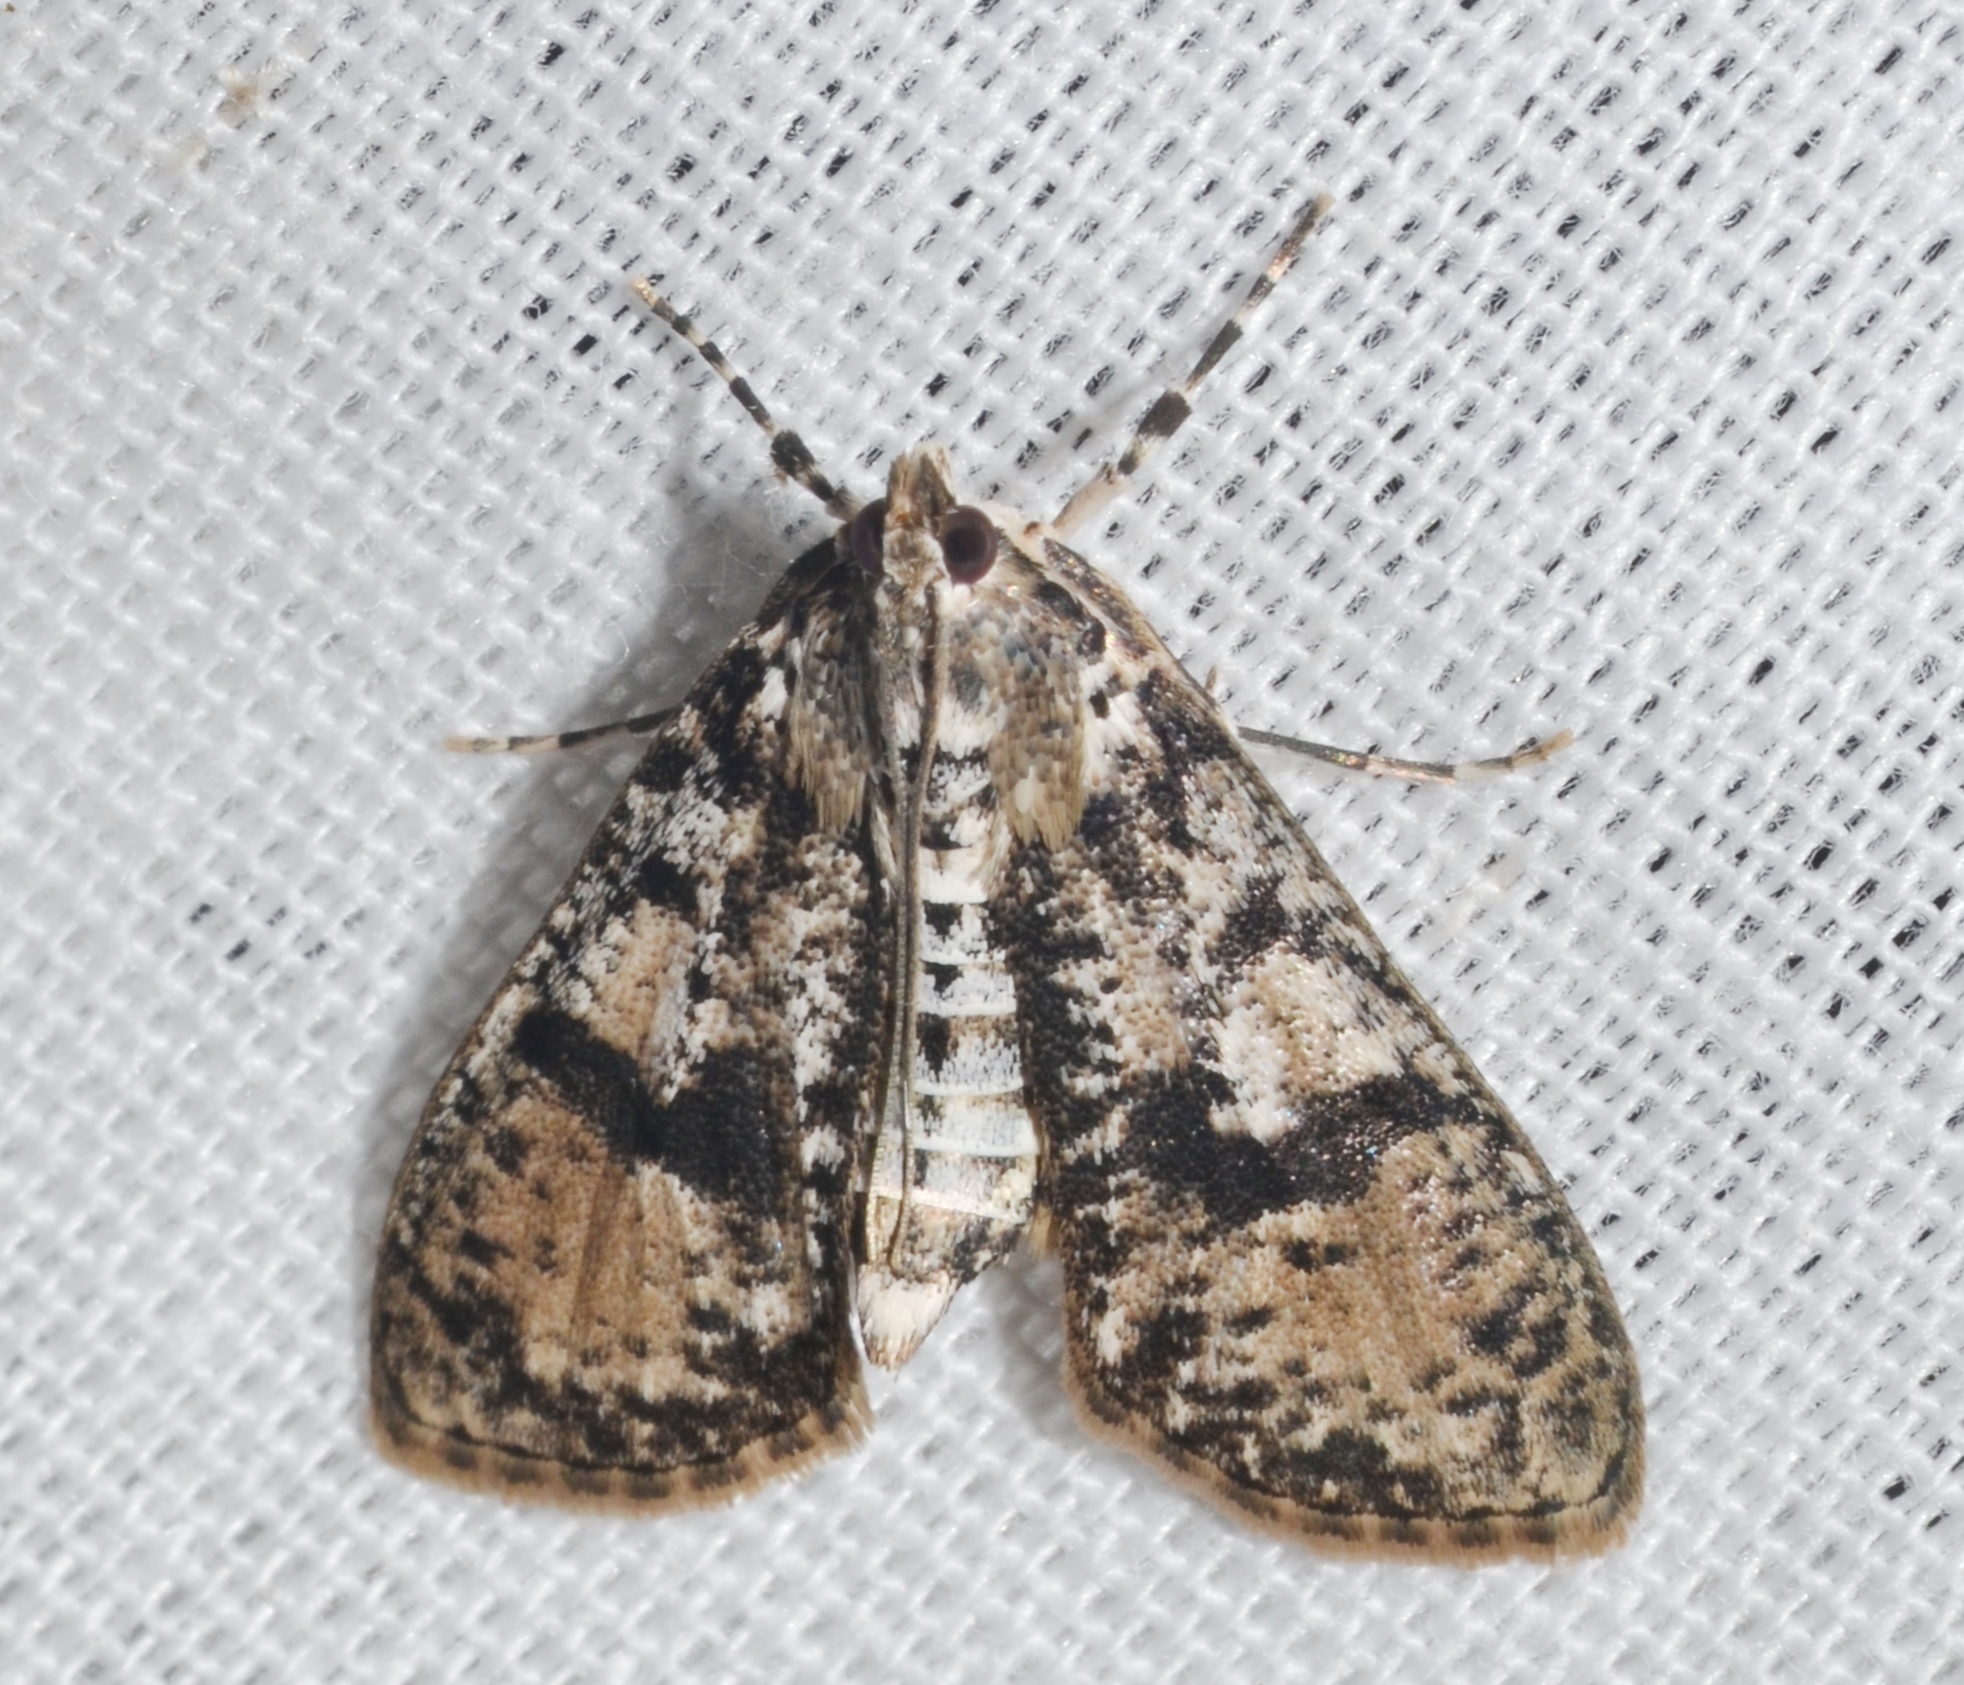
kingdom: Animalia
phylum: Arthropoda
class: Insecta
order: Lepidoptera
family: Crambidae
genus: Palpita
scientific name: Palpita magniferalis
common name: Splendid palpita moth
